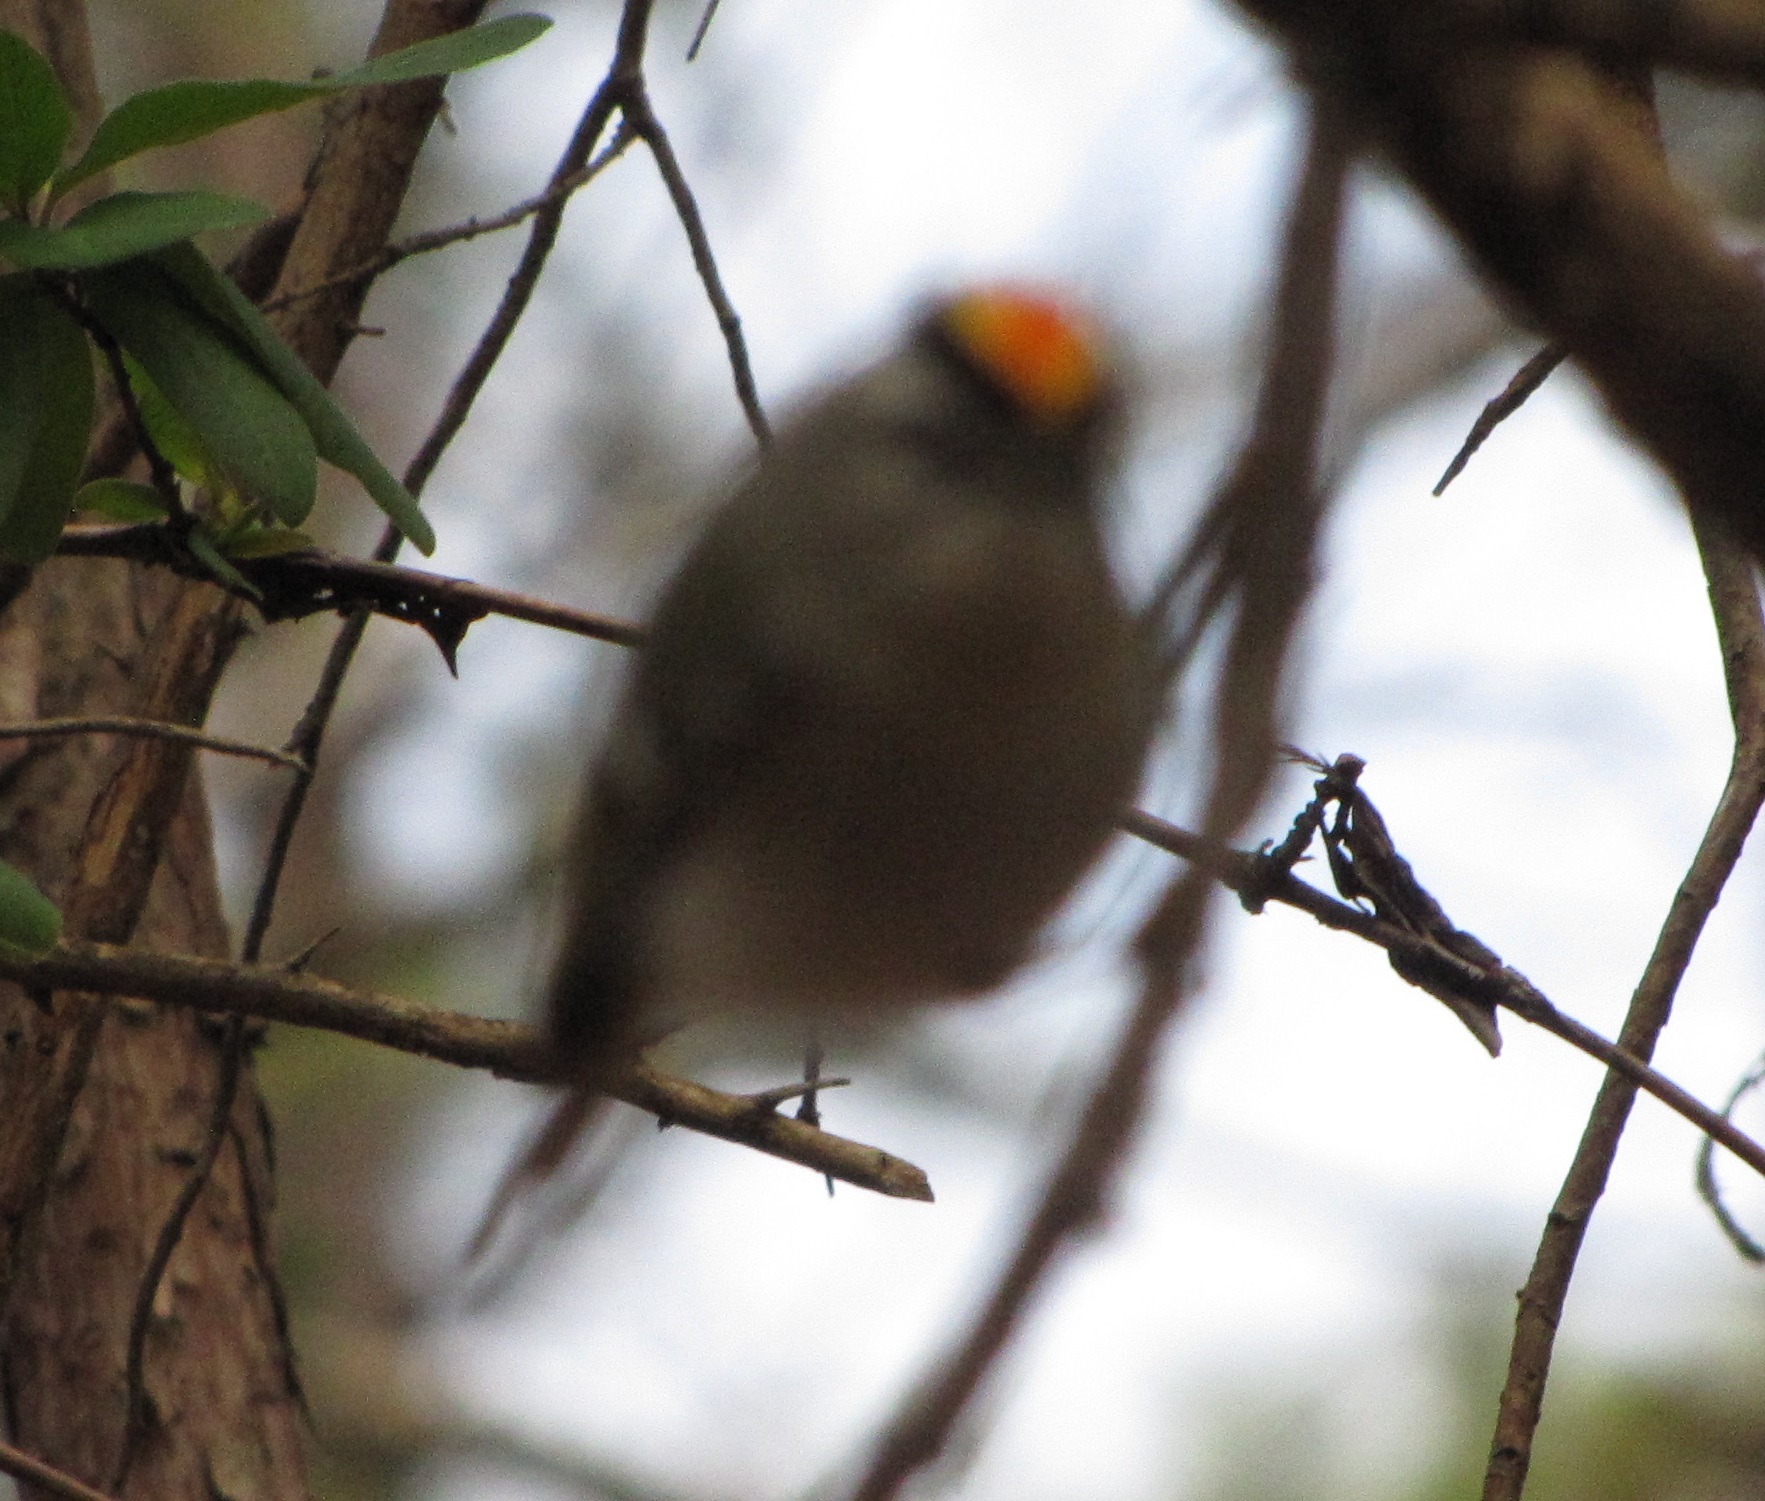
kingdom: Animalia
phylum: Chordata
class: Aves
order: Passeriformes
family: Regulidae
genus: Regulus
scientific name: Regulus satrapa
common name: Golden-crowned kinglet
